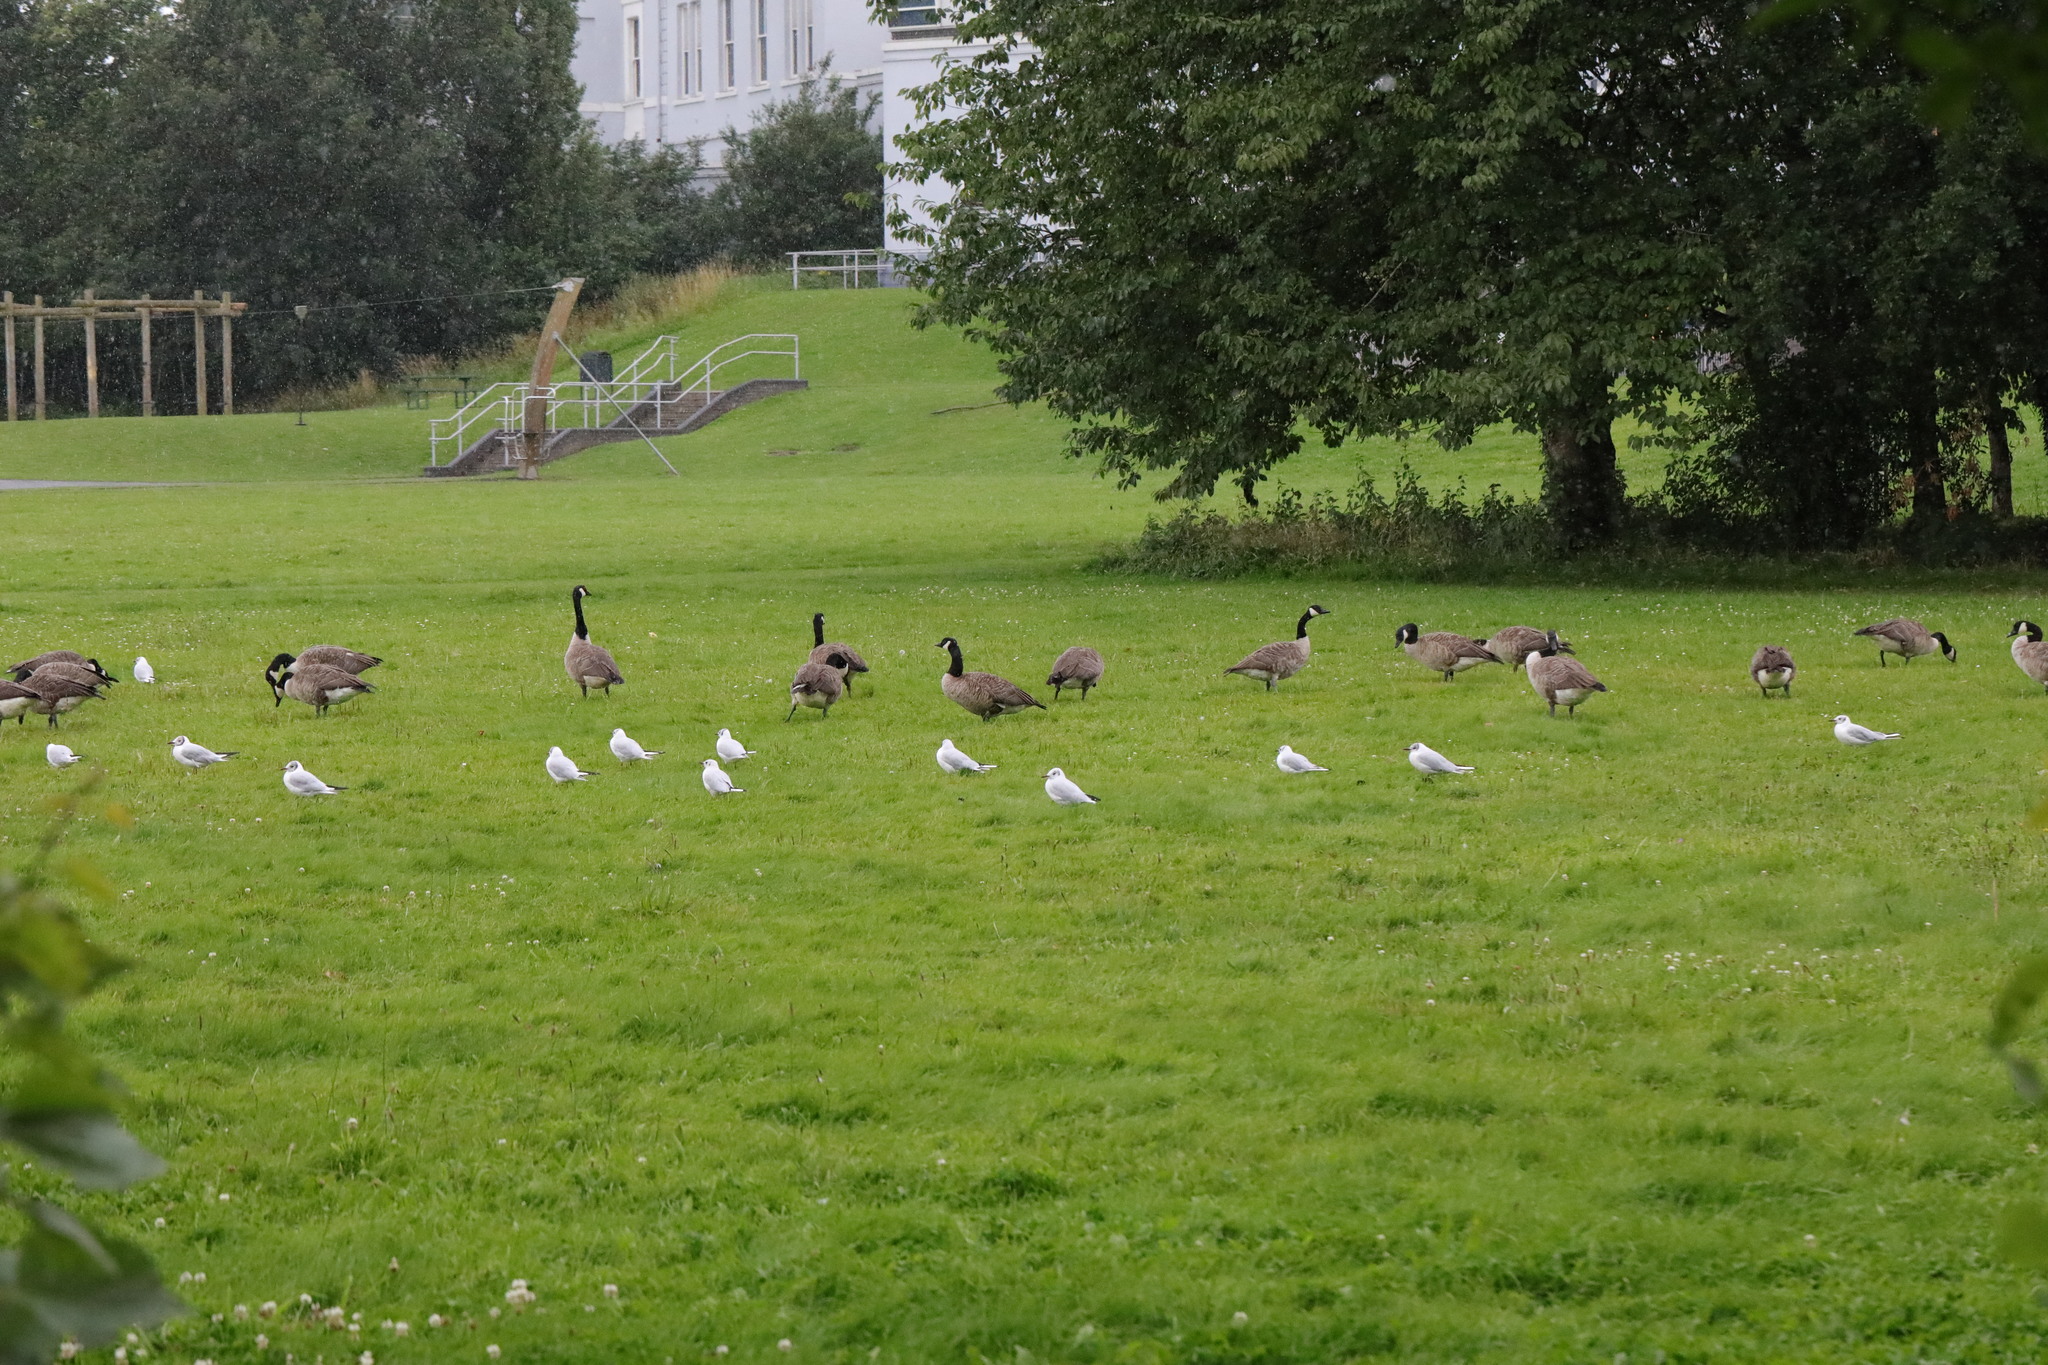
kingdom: Animalia
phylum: Chordata
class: Aves
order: Charadriiformes
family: Laridae
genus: Chroicocephalus
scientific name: Chroicocephalus ridibundus
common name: Black-headed gull
